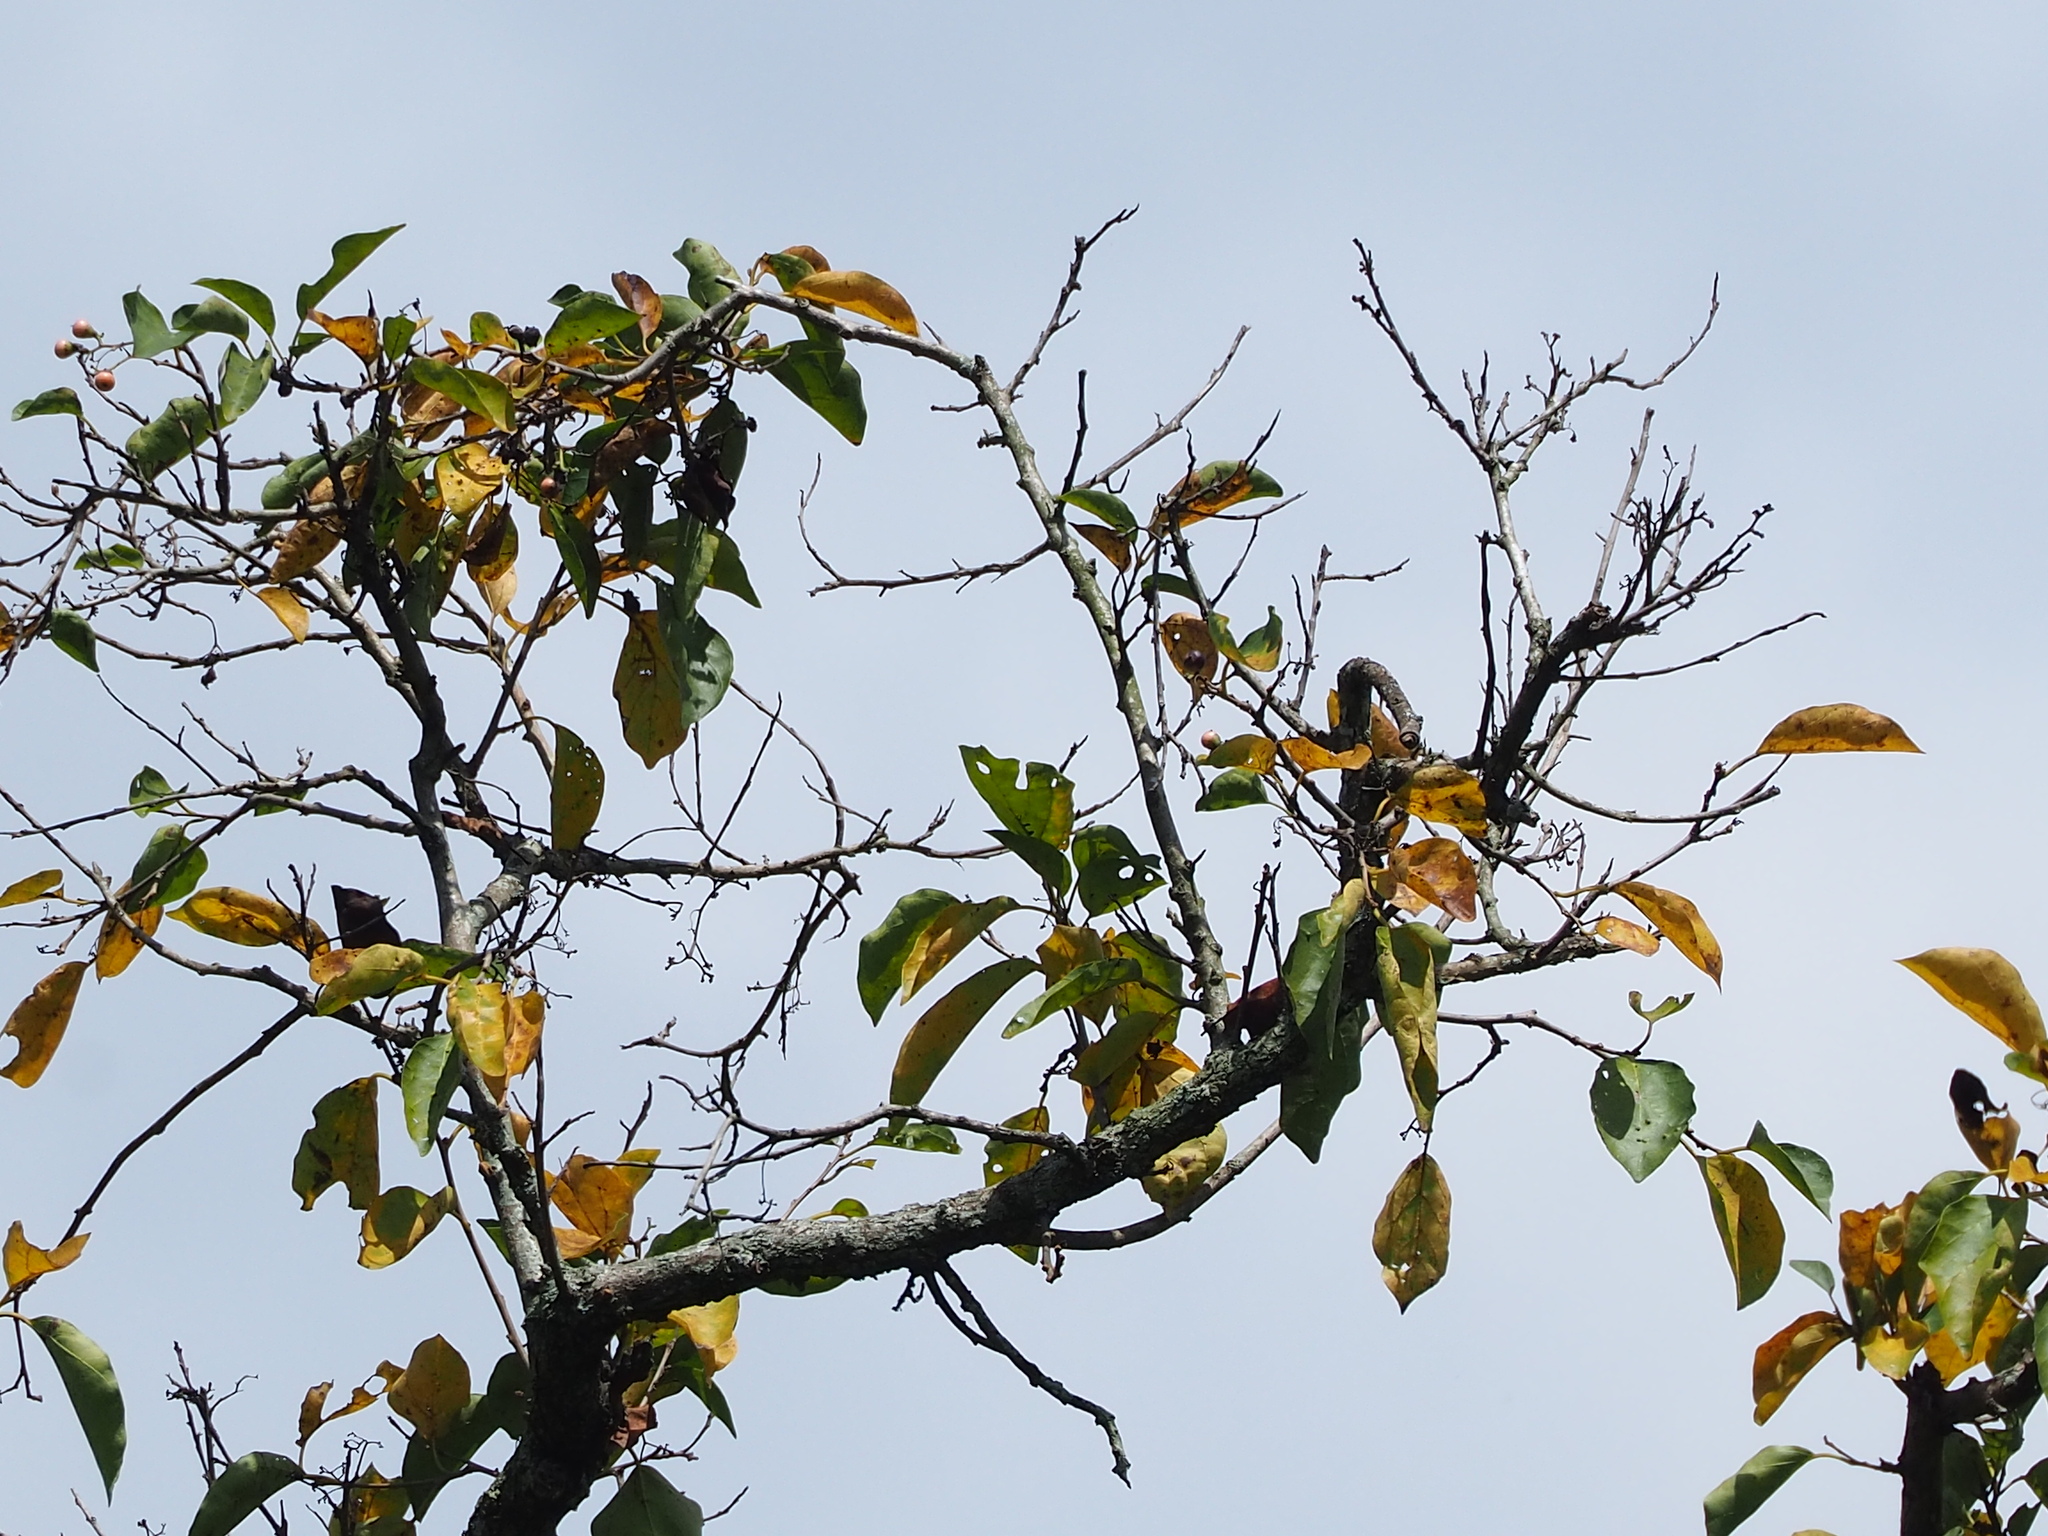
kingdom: Plantae
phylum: Tracheophyta
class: Magnoliopsida
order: Boraginales
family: Cordiaceae
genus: Cordia
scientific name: Cordia dichotoma
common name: Fragrant manjack
